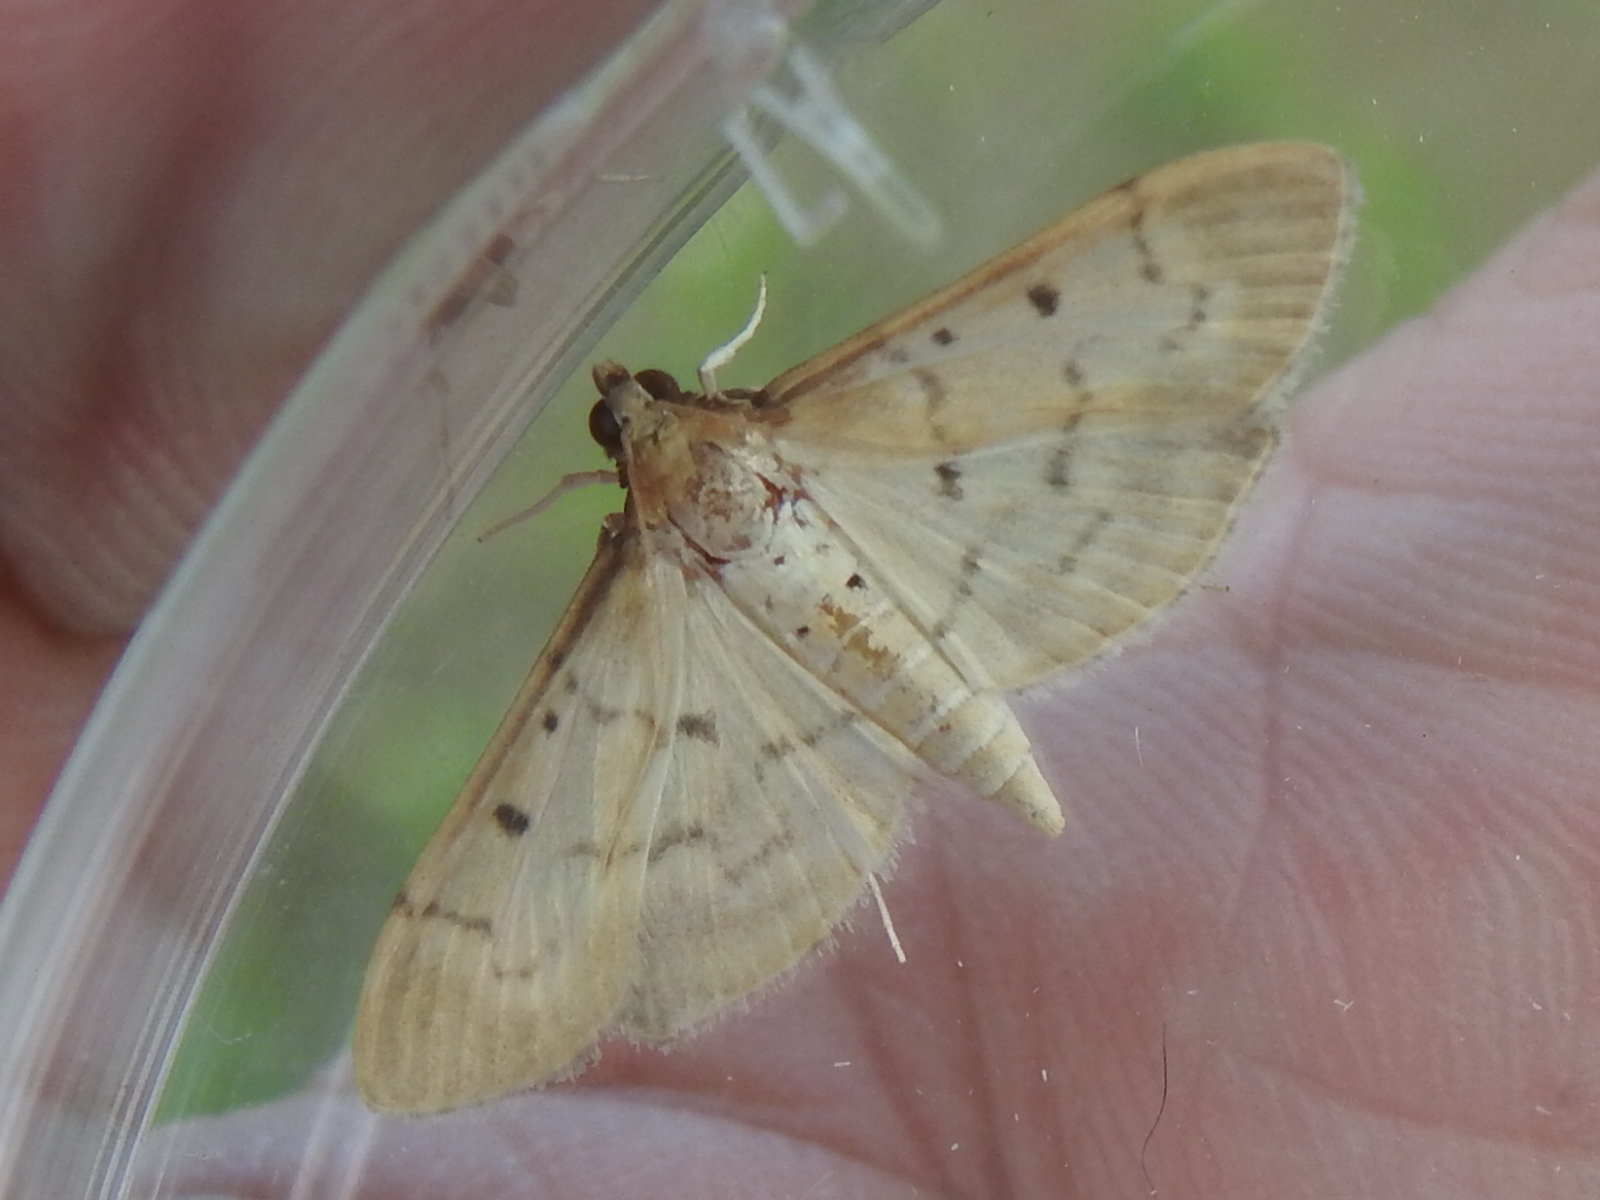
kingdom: Animalia
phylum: Arthropoda
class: Insecta
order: Lepidoptera
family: Crambidae
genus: Herpetogramma
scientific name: Herpetogramma bipunctalis
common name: Southern beet webworm
